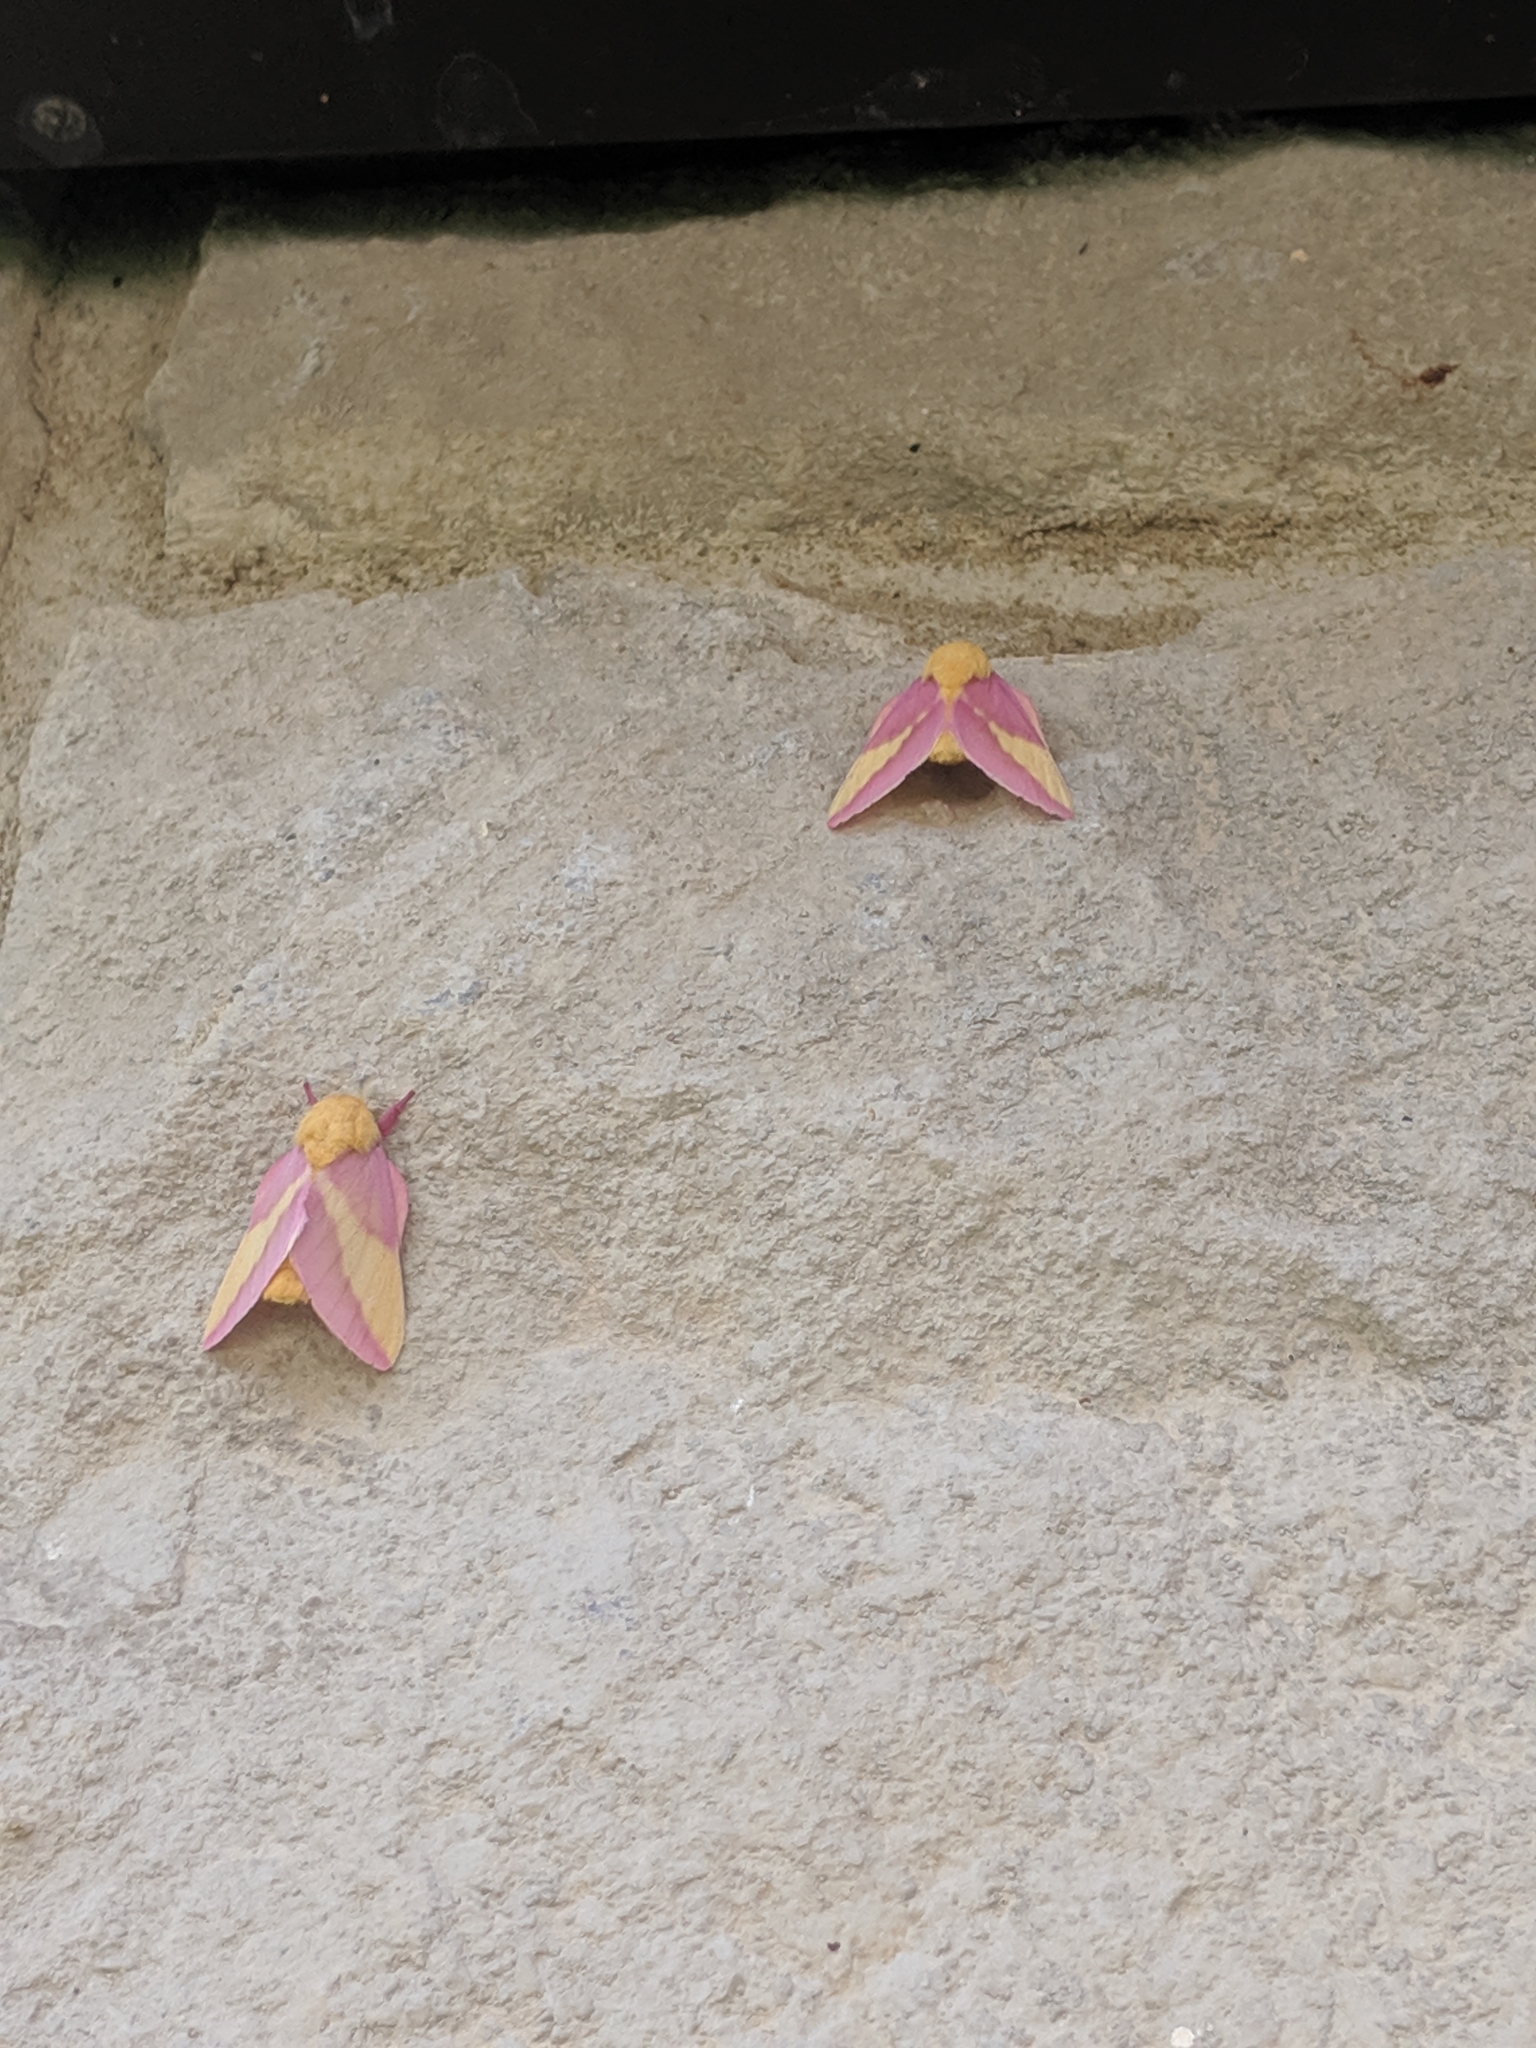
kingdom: Animalia
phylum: Arthropoda
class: Insecta
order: Lepidoptera
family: Saturniidae
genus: Dryocampa
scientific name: Dryocampa rubicunda
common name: Rosy maple moth
